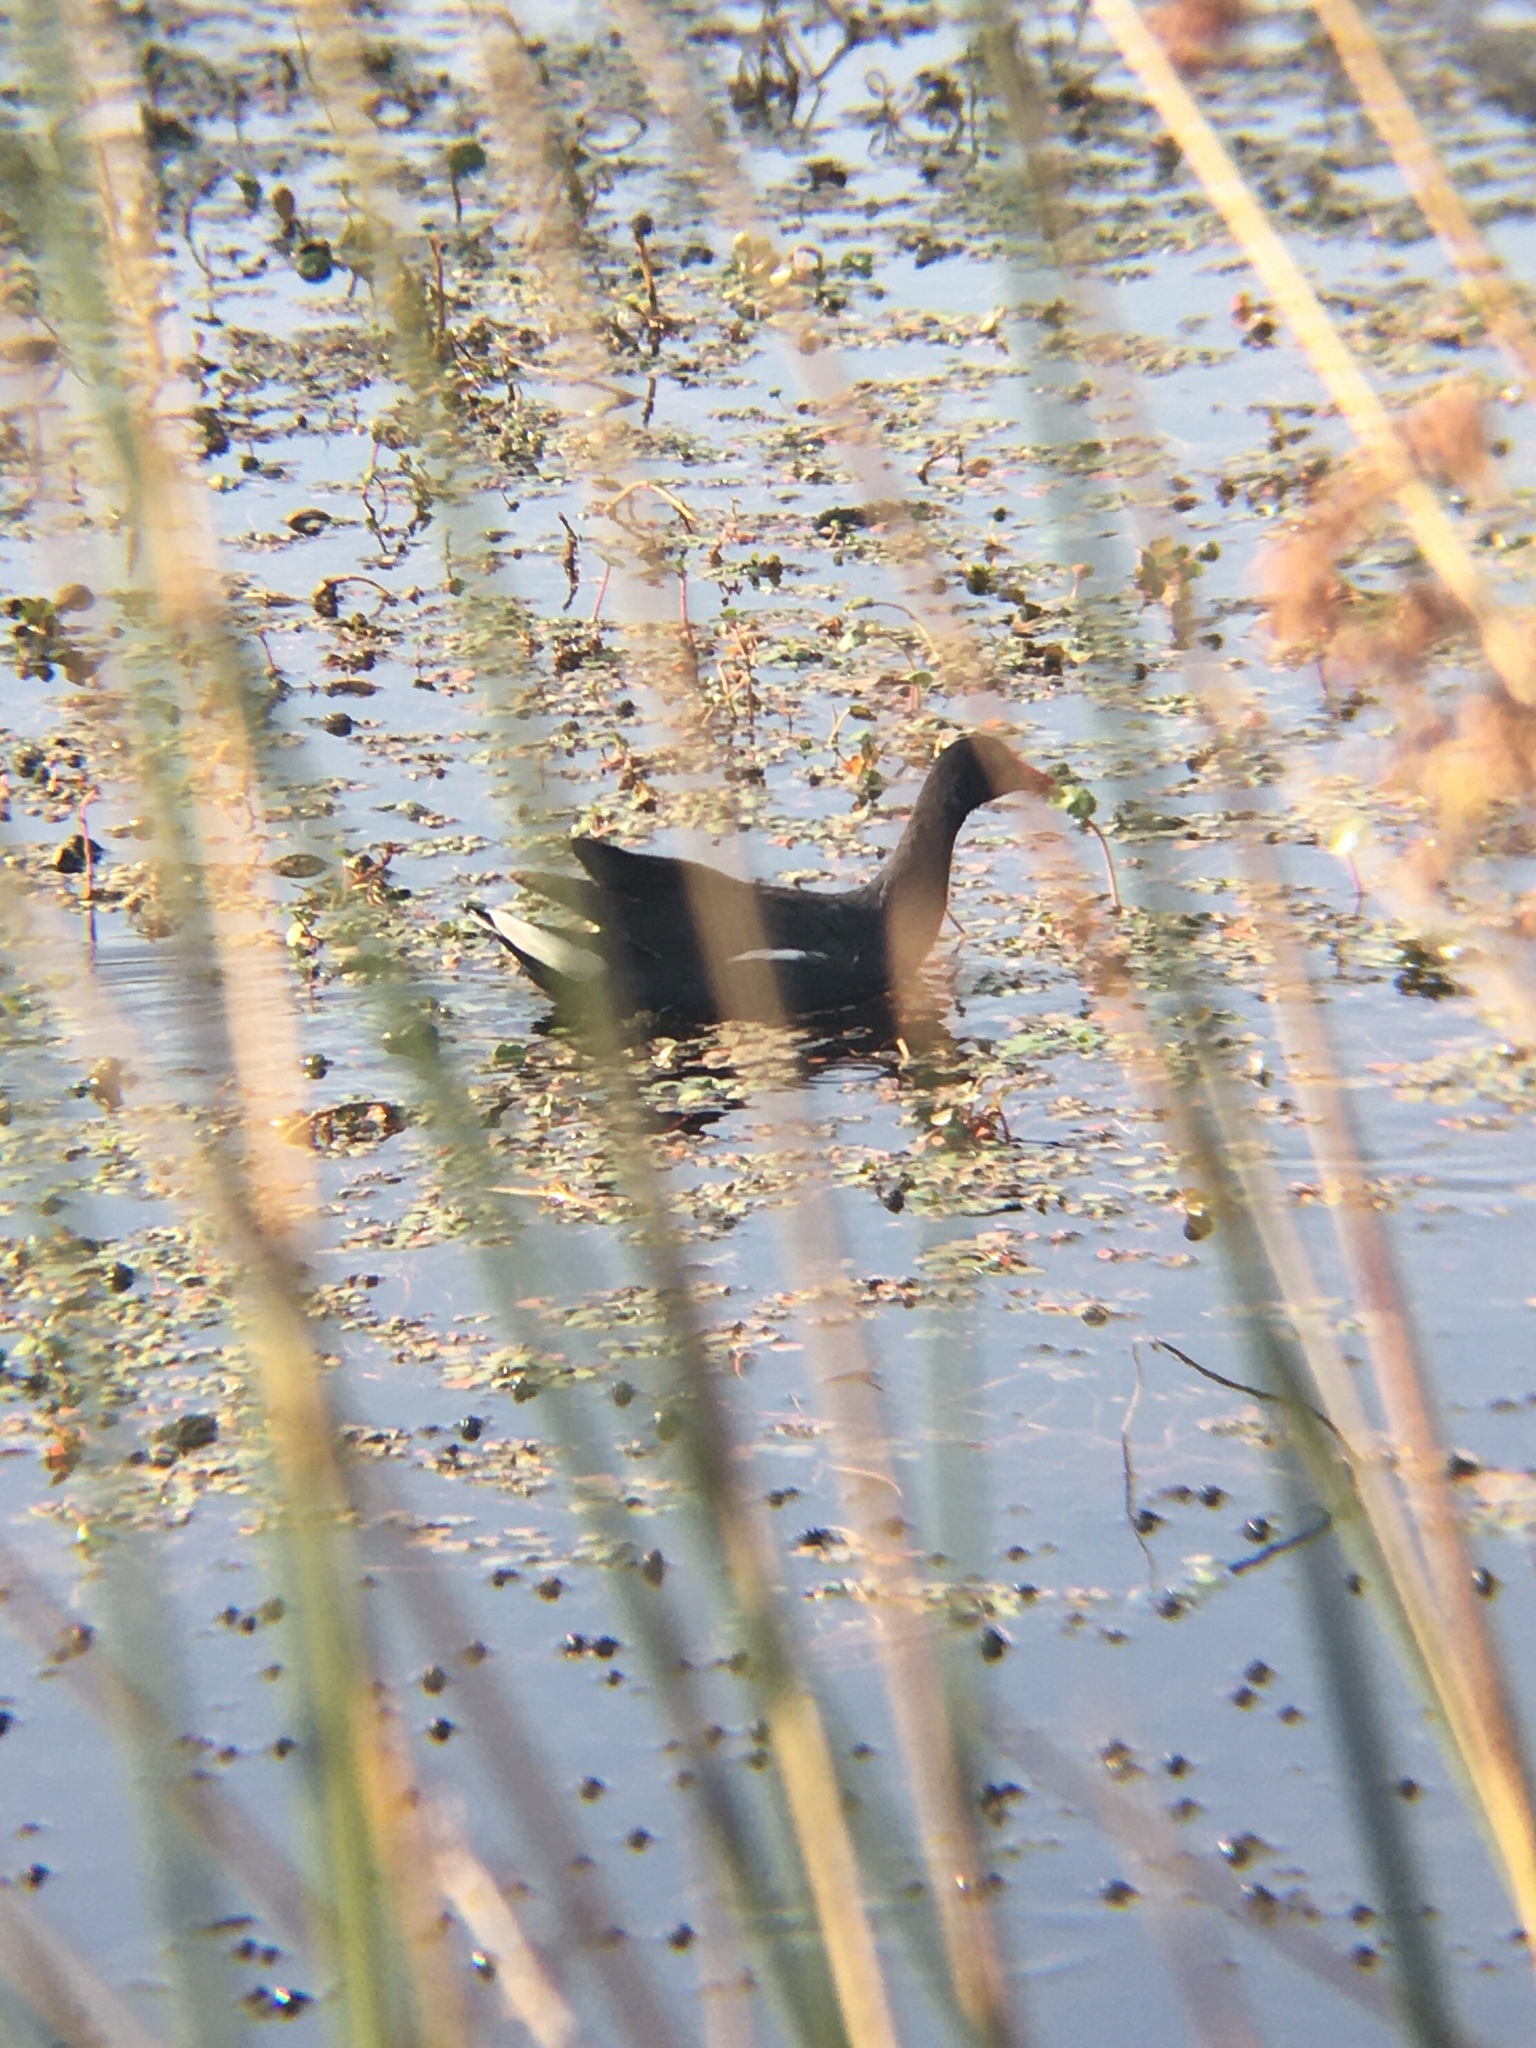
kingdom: Animalia
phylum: Chordata
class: Aves
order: Gruiformes
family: Rallidae
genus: Gallinula
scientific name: Gallinula chloropus
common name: Common moorhen
